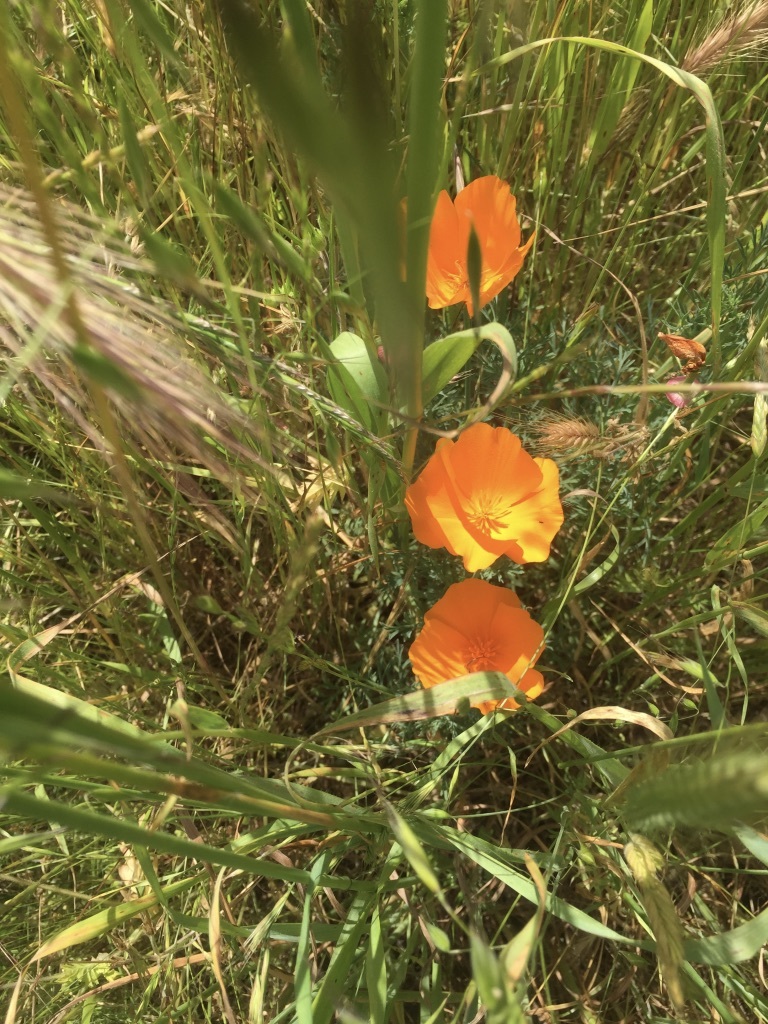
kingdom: Plantae
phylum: Tracheophyta
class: Magnoliopsida
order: Ranunculales
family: Papaveraceae
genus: Eschscholzia
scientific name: Eschscholzia californica
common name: California poppy
